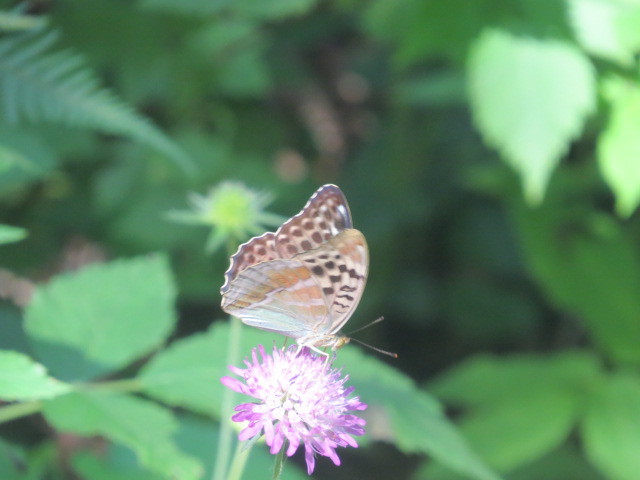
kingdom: Animalia
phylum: Arthropoda
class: Insecta
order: Lepidoptera
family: Nymphalidae
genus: Argynnis
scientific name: Argynnis paphia
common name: Silver-washed fritillary
